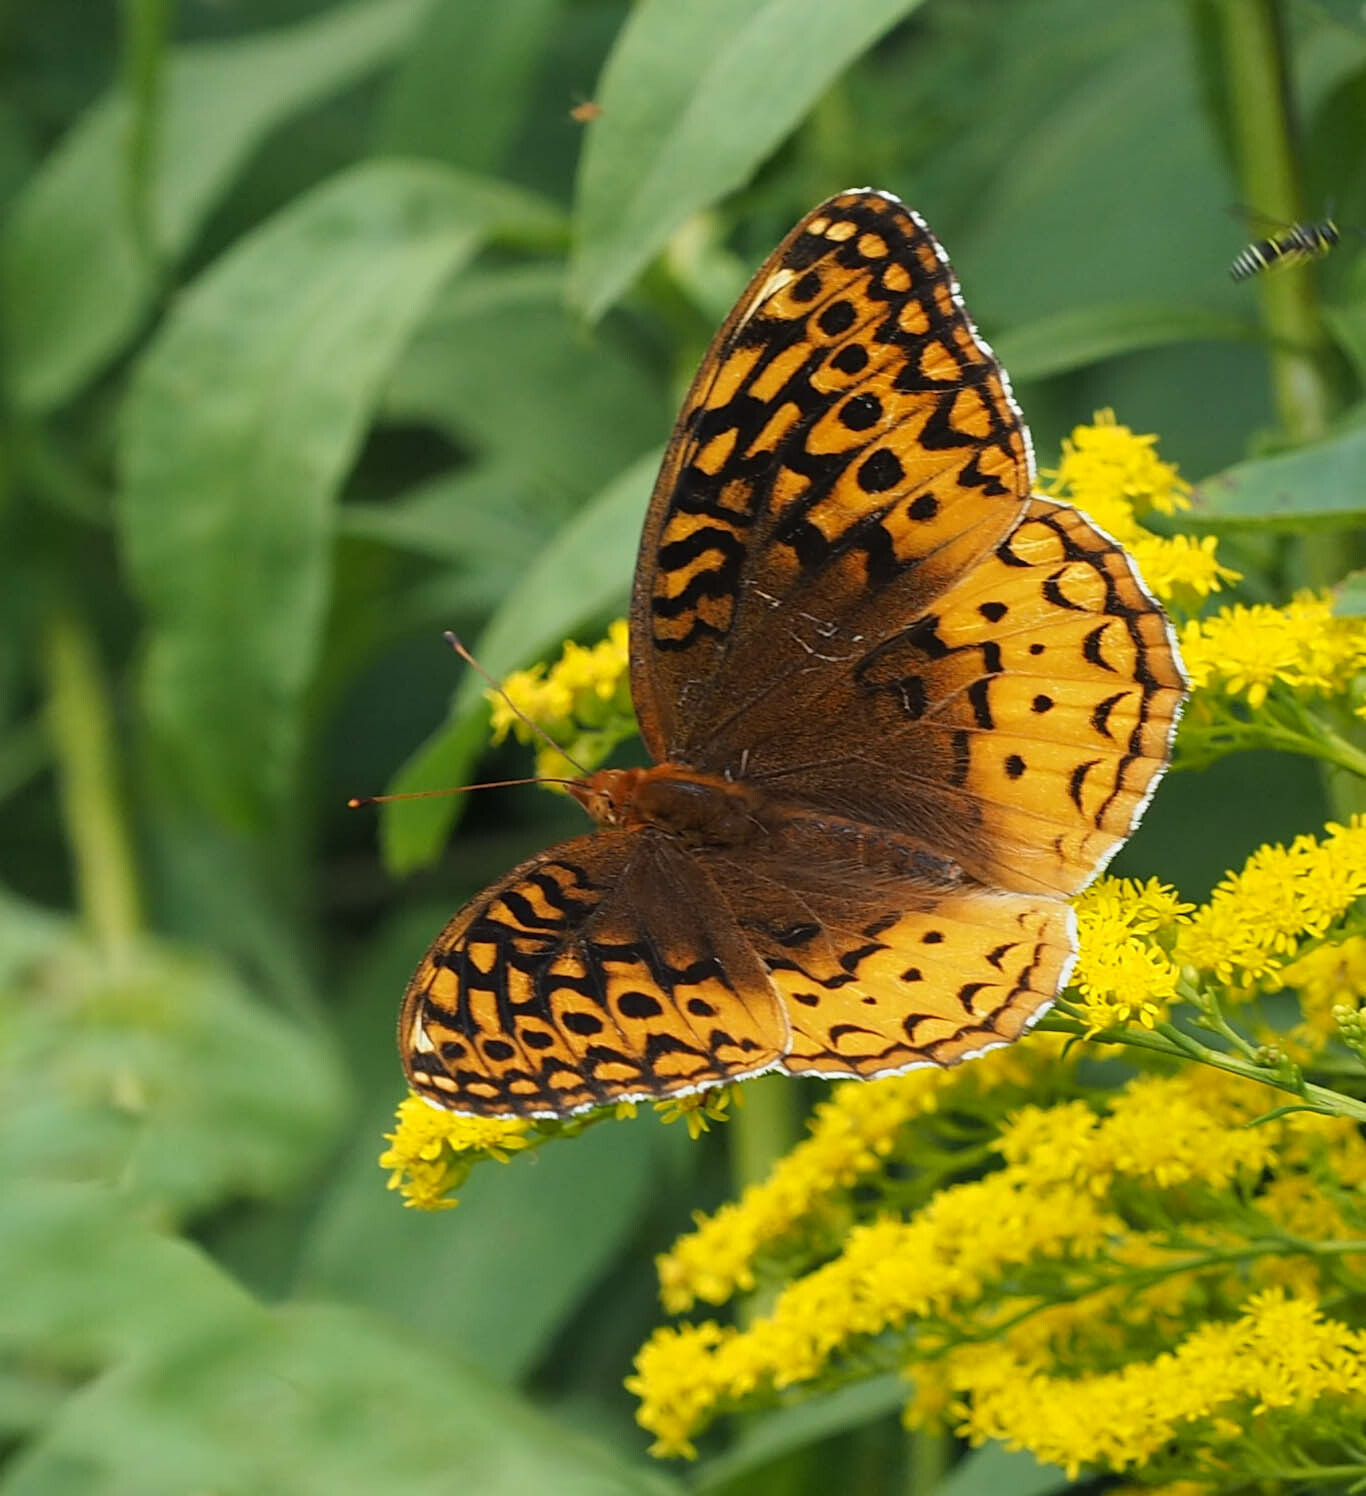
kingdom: Animalia
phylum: Arthropoda
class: Insecta
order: Lepidoptera
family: Nymphalidae
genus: Speyeria
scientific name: Speyeria cybele
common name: Great spangled fritillary
